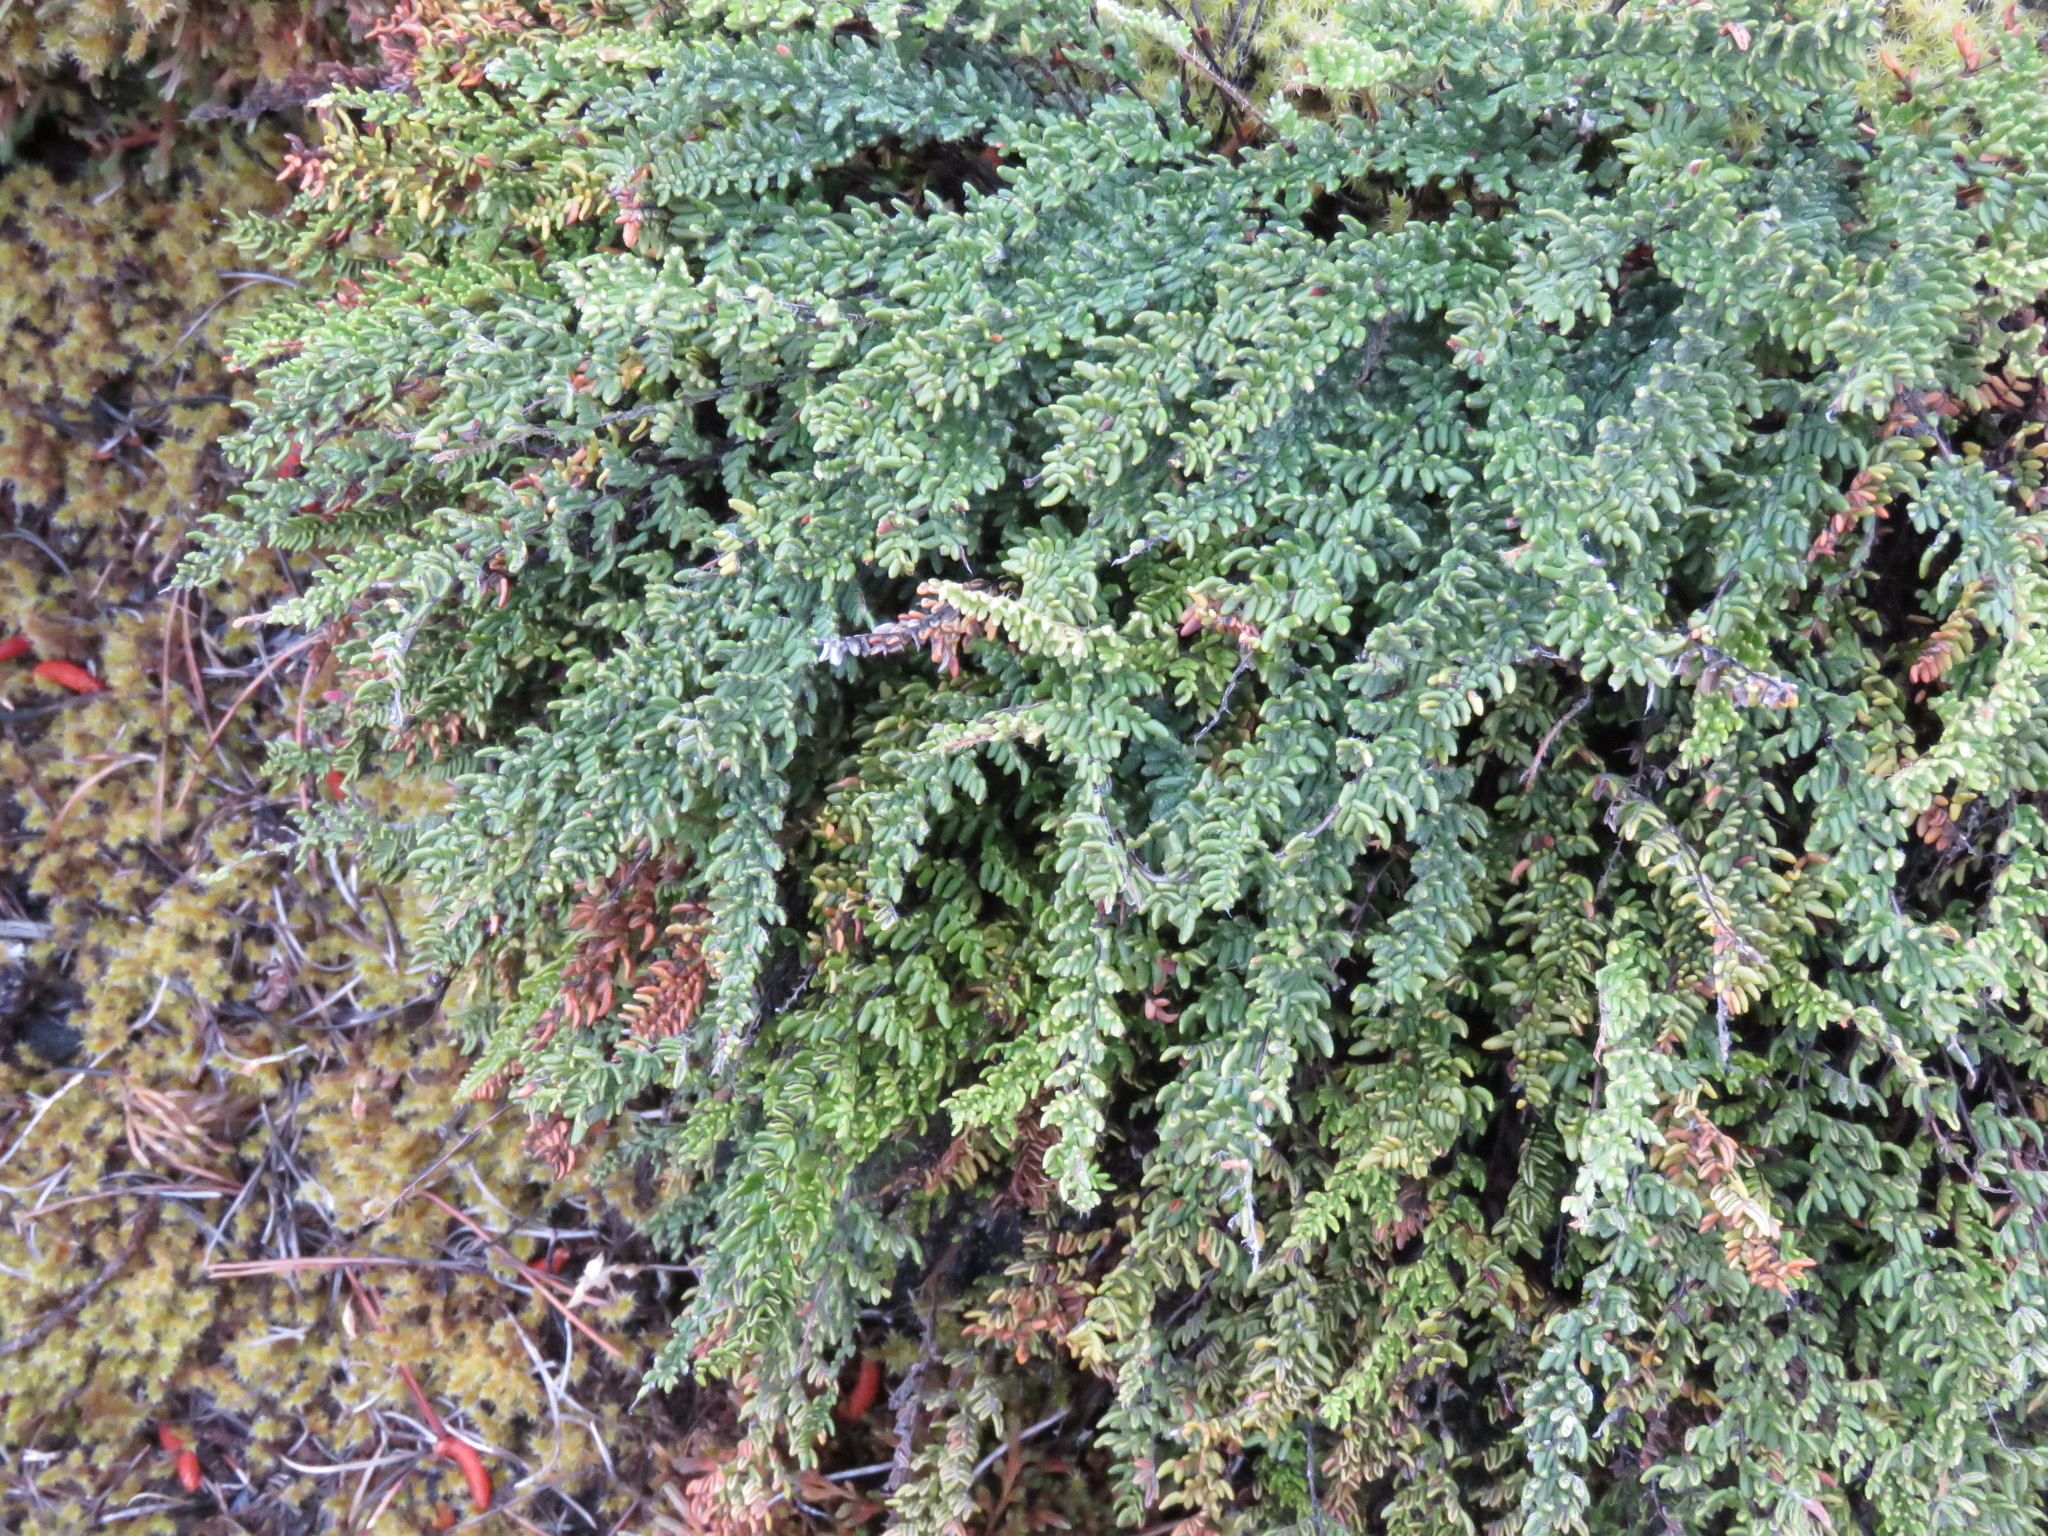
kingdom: Plantae
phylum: Tracheophyta
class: Polypodiopsida
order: Polypodiales
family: Pteridaceae
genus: Myriopteris
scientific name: Myriopteris gracillima
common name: Lace fern
